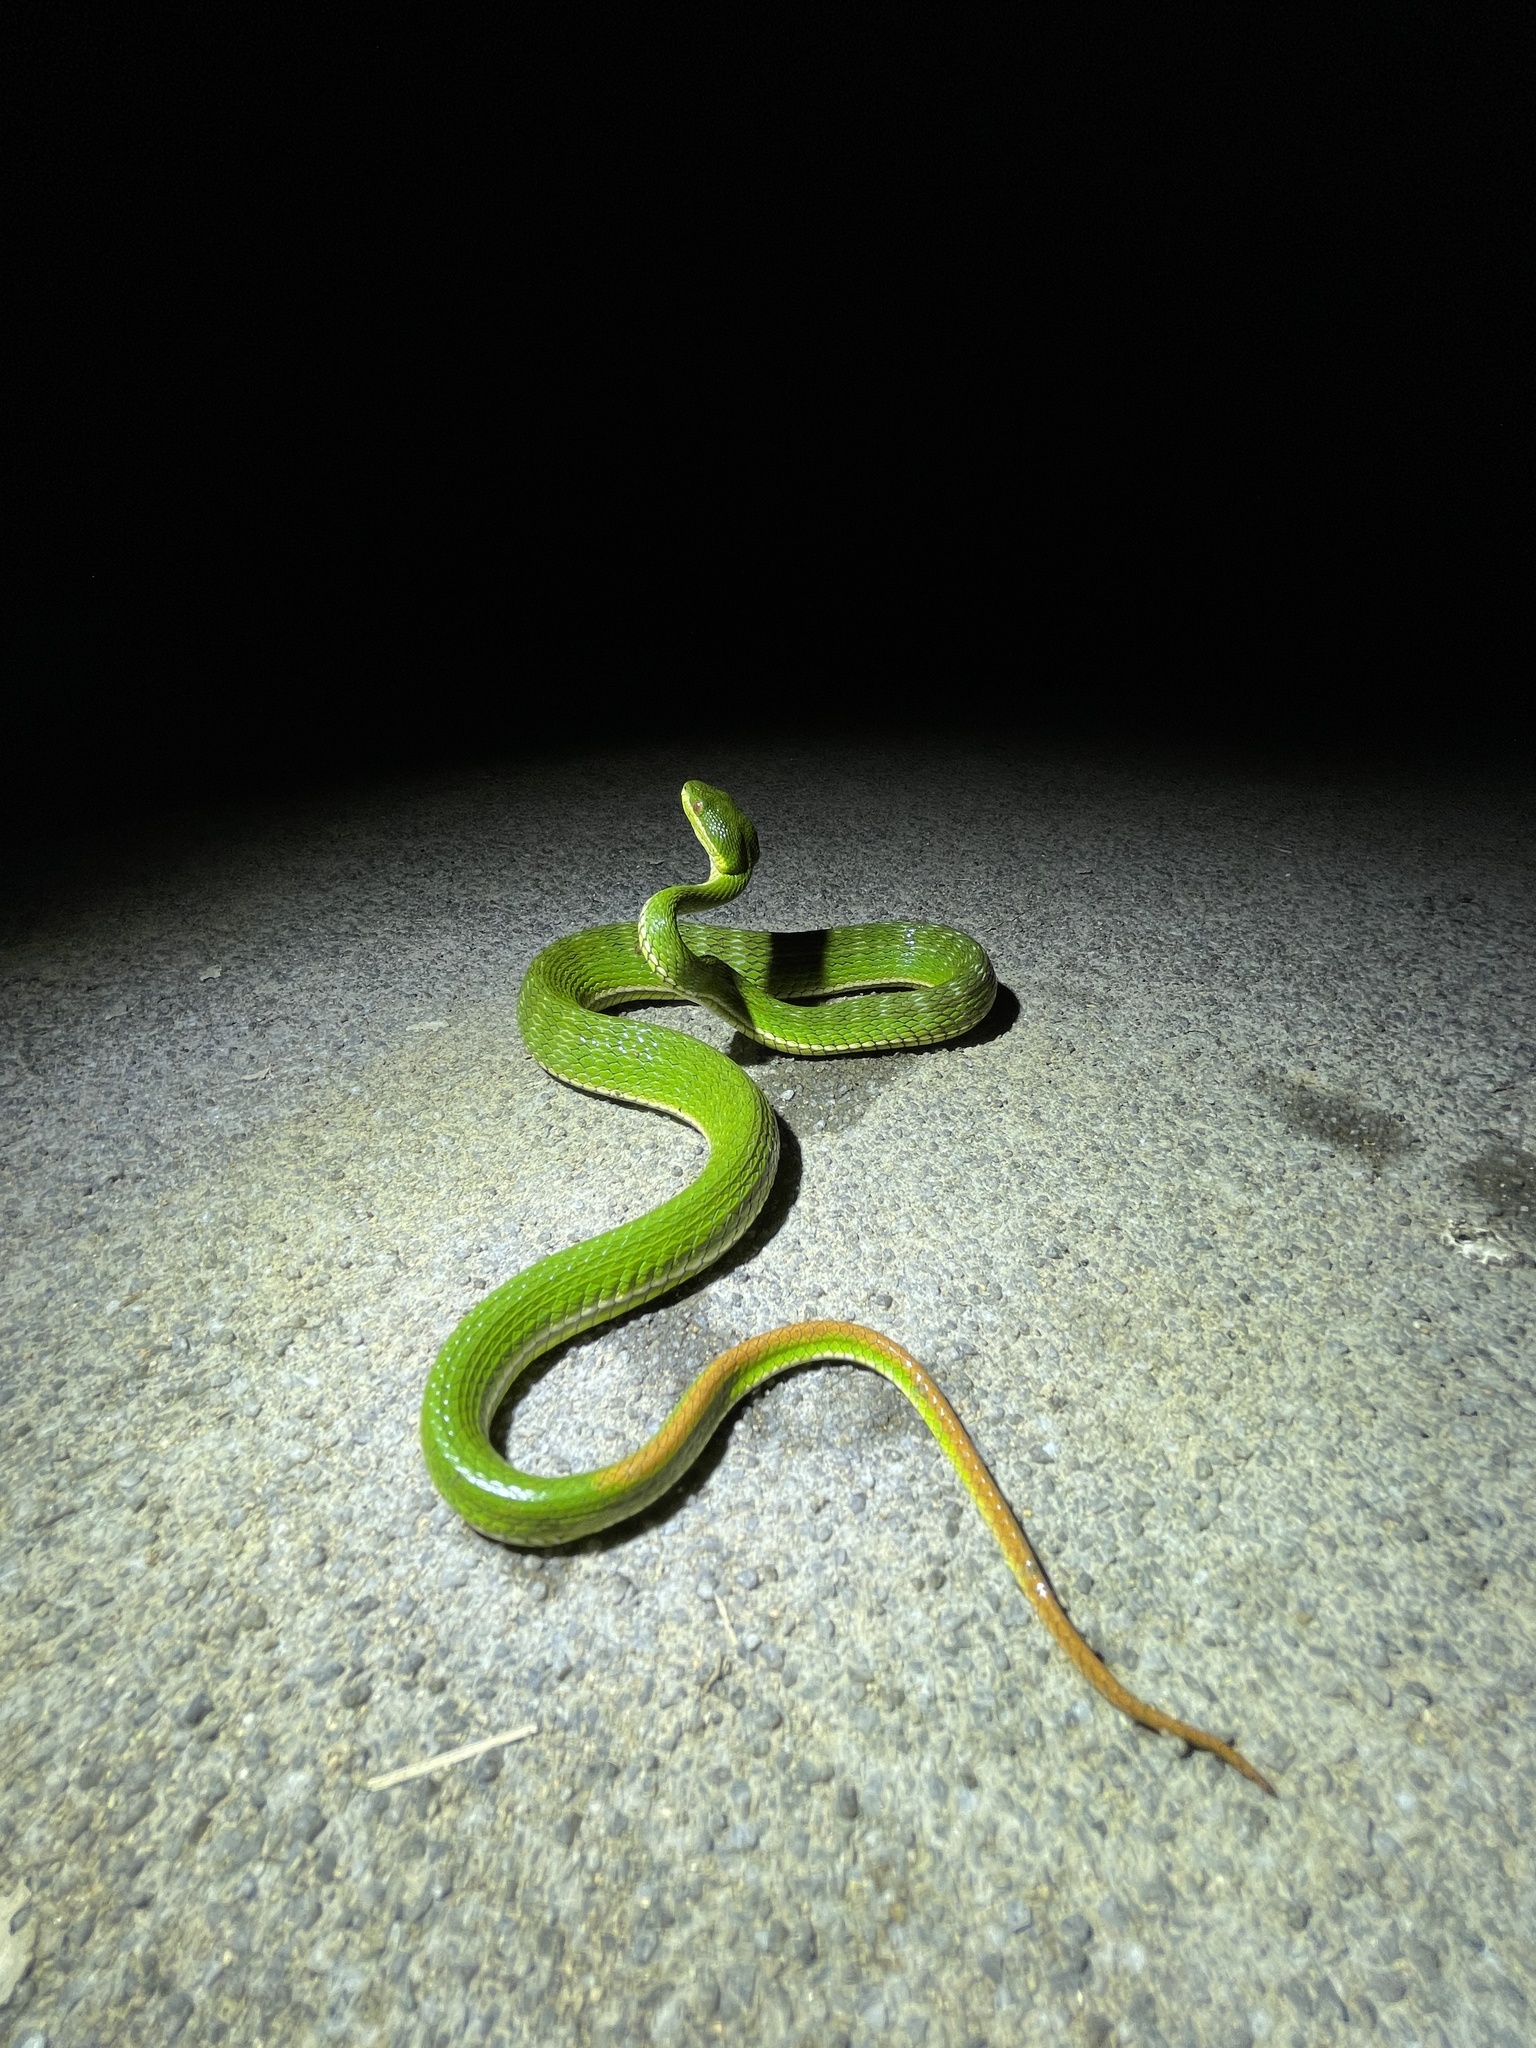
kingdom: Animalia
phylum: Chordata
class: Squamata
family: Viperidae
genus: Trimeresurus
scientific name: Trimeresurus albolabris
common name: White-lipped pitviper
